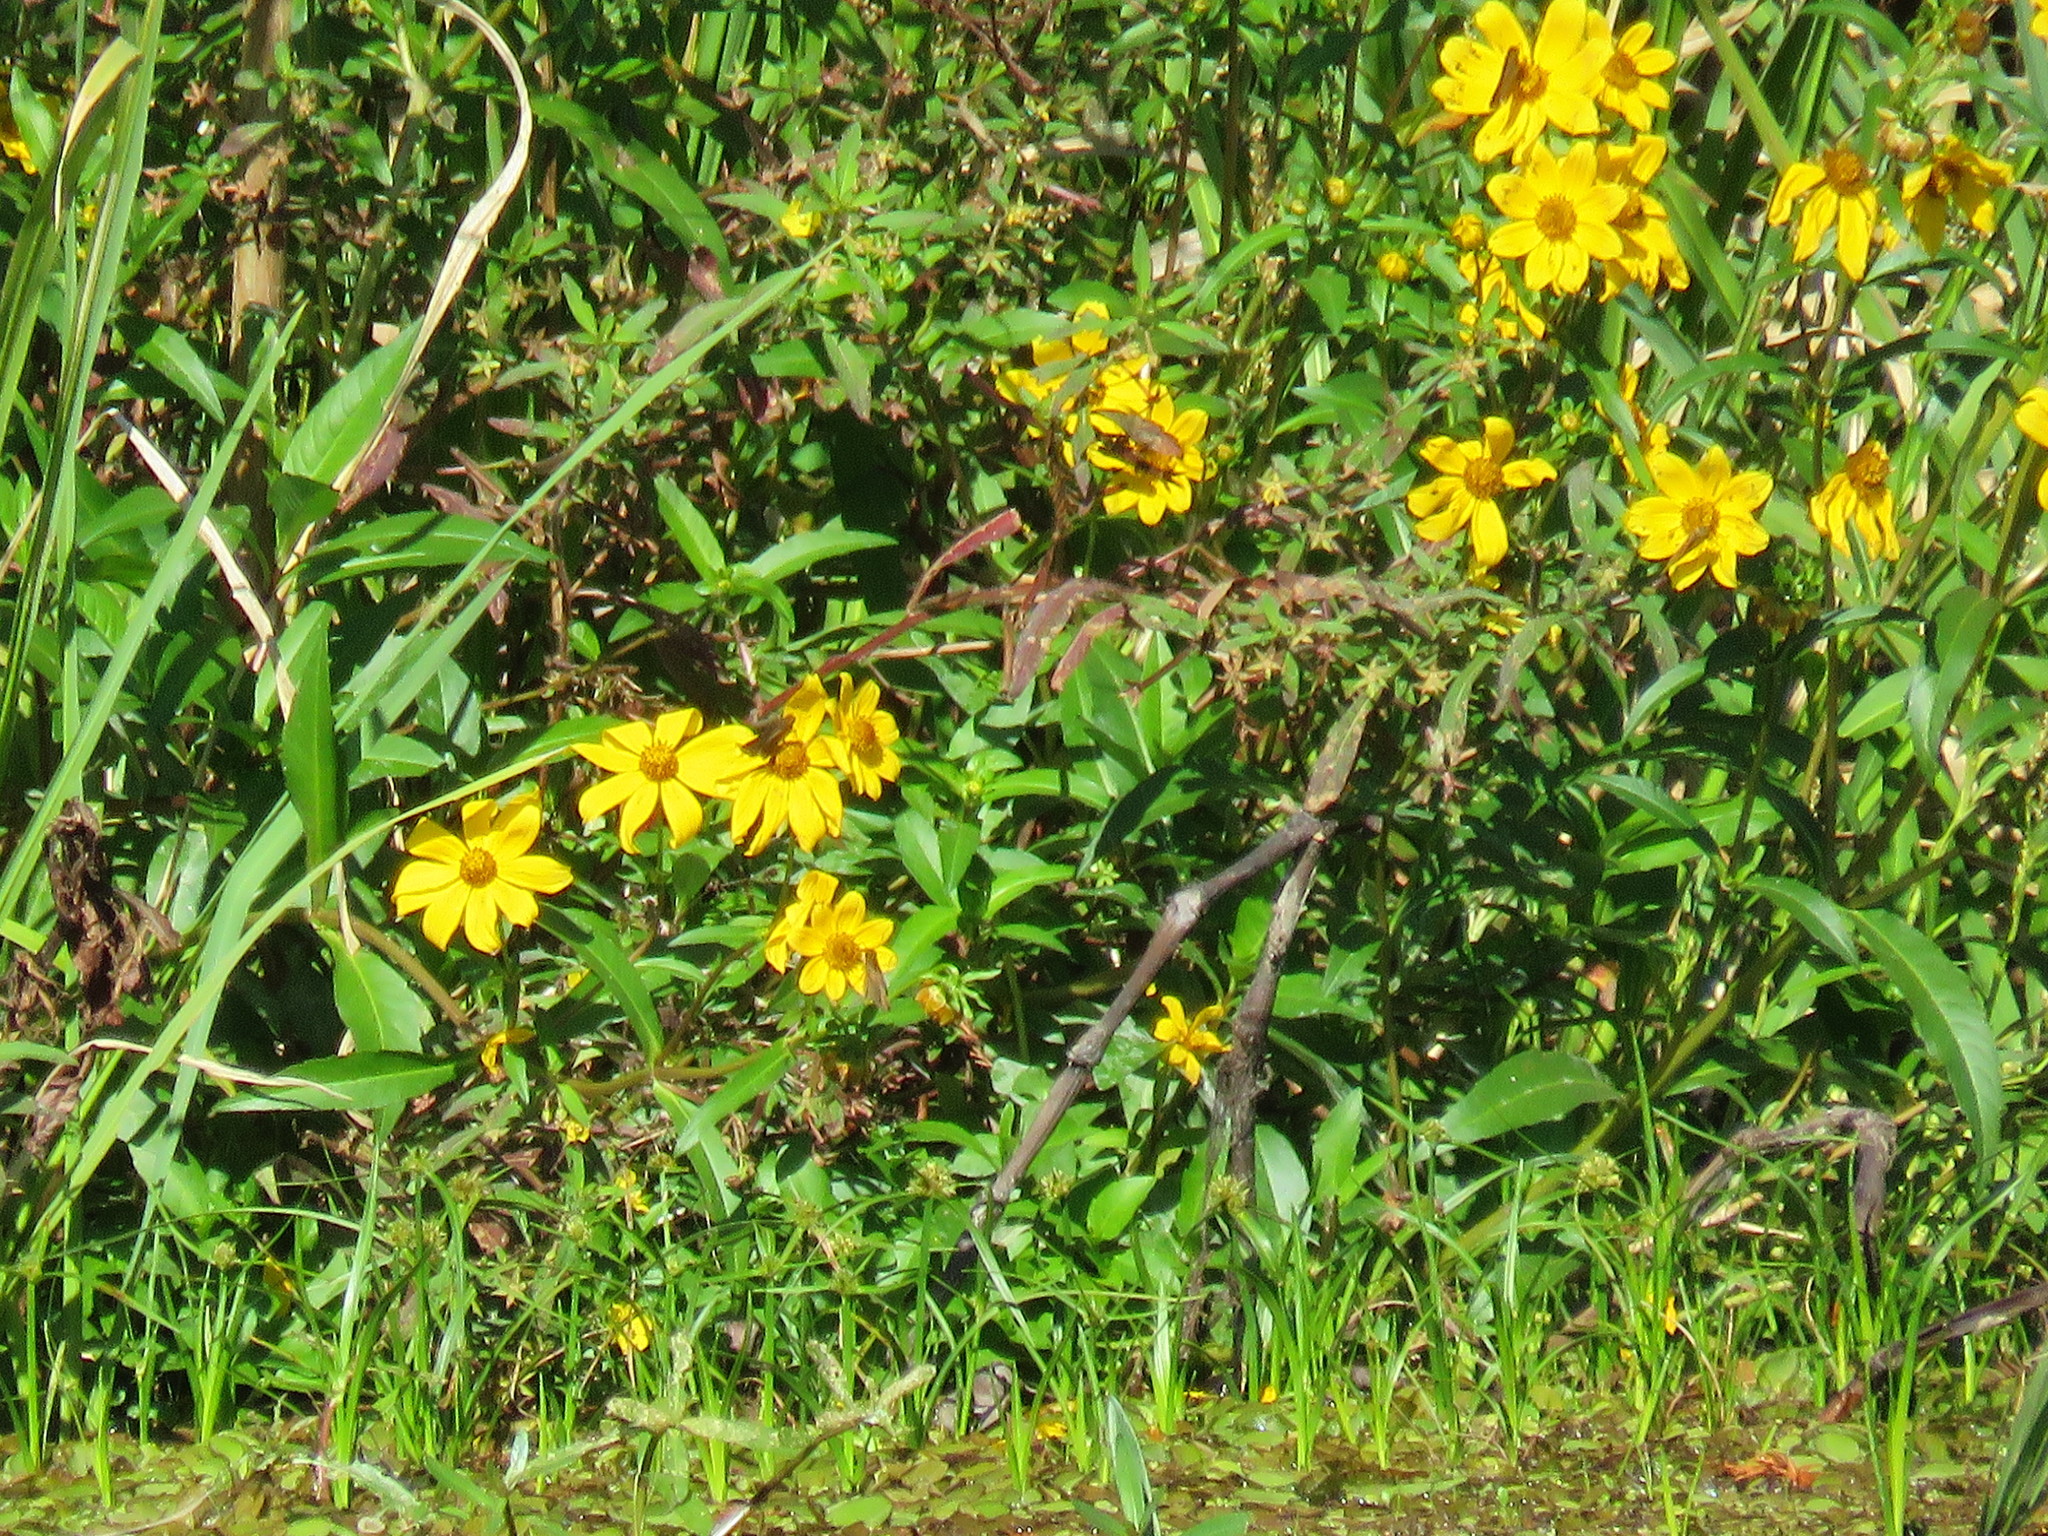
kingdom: Plantae
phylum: Tracheophyta
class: Magnoliopsida
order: Asterales
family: Asteraceae
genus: Bidens
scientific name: Bidens laevis
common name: Larger bur-marigold
